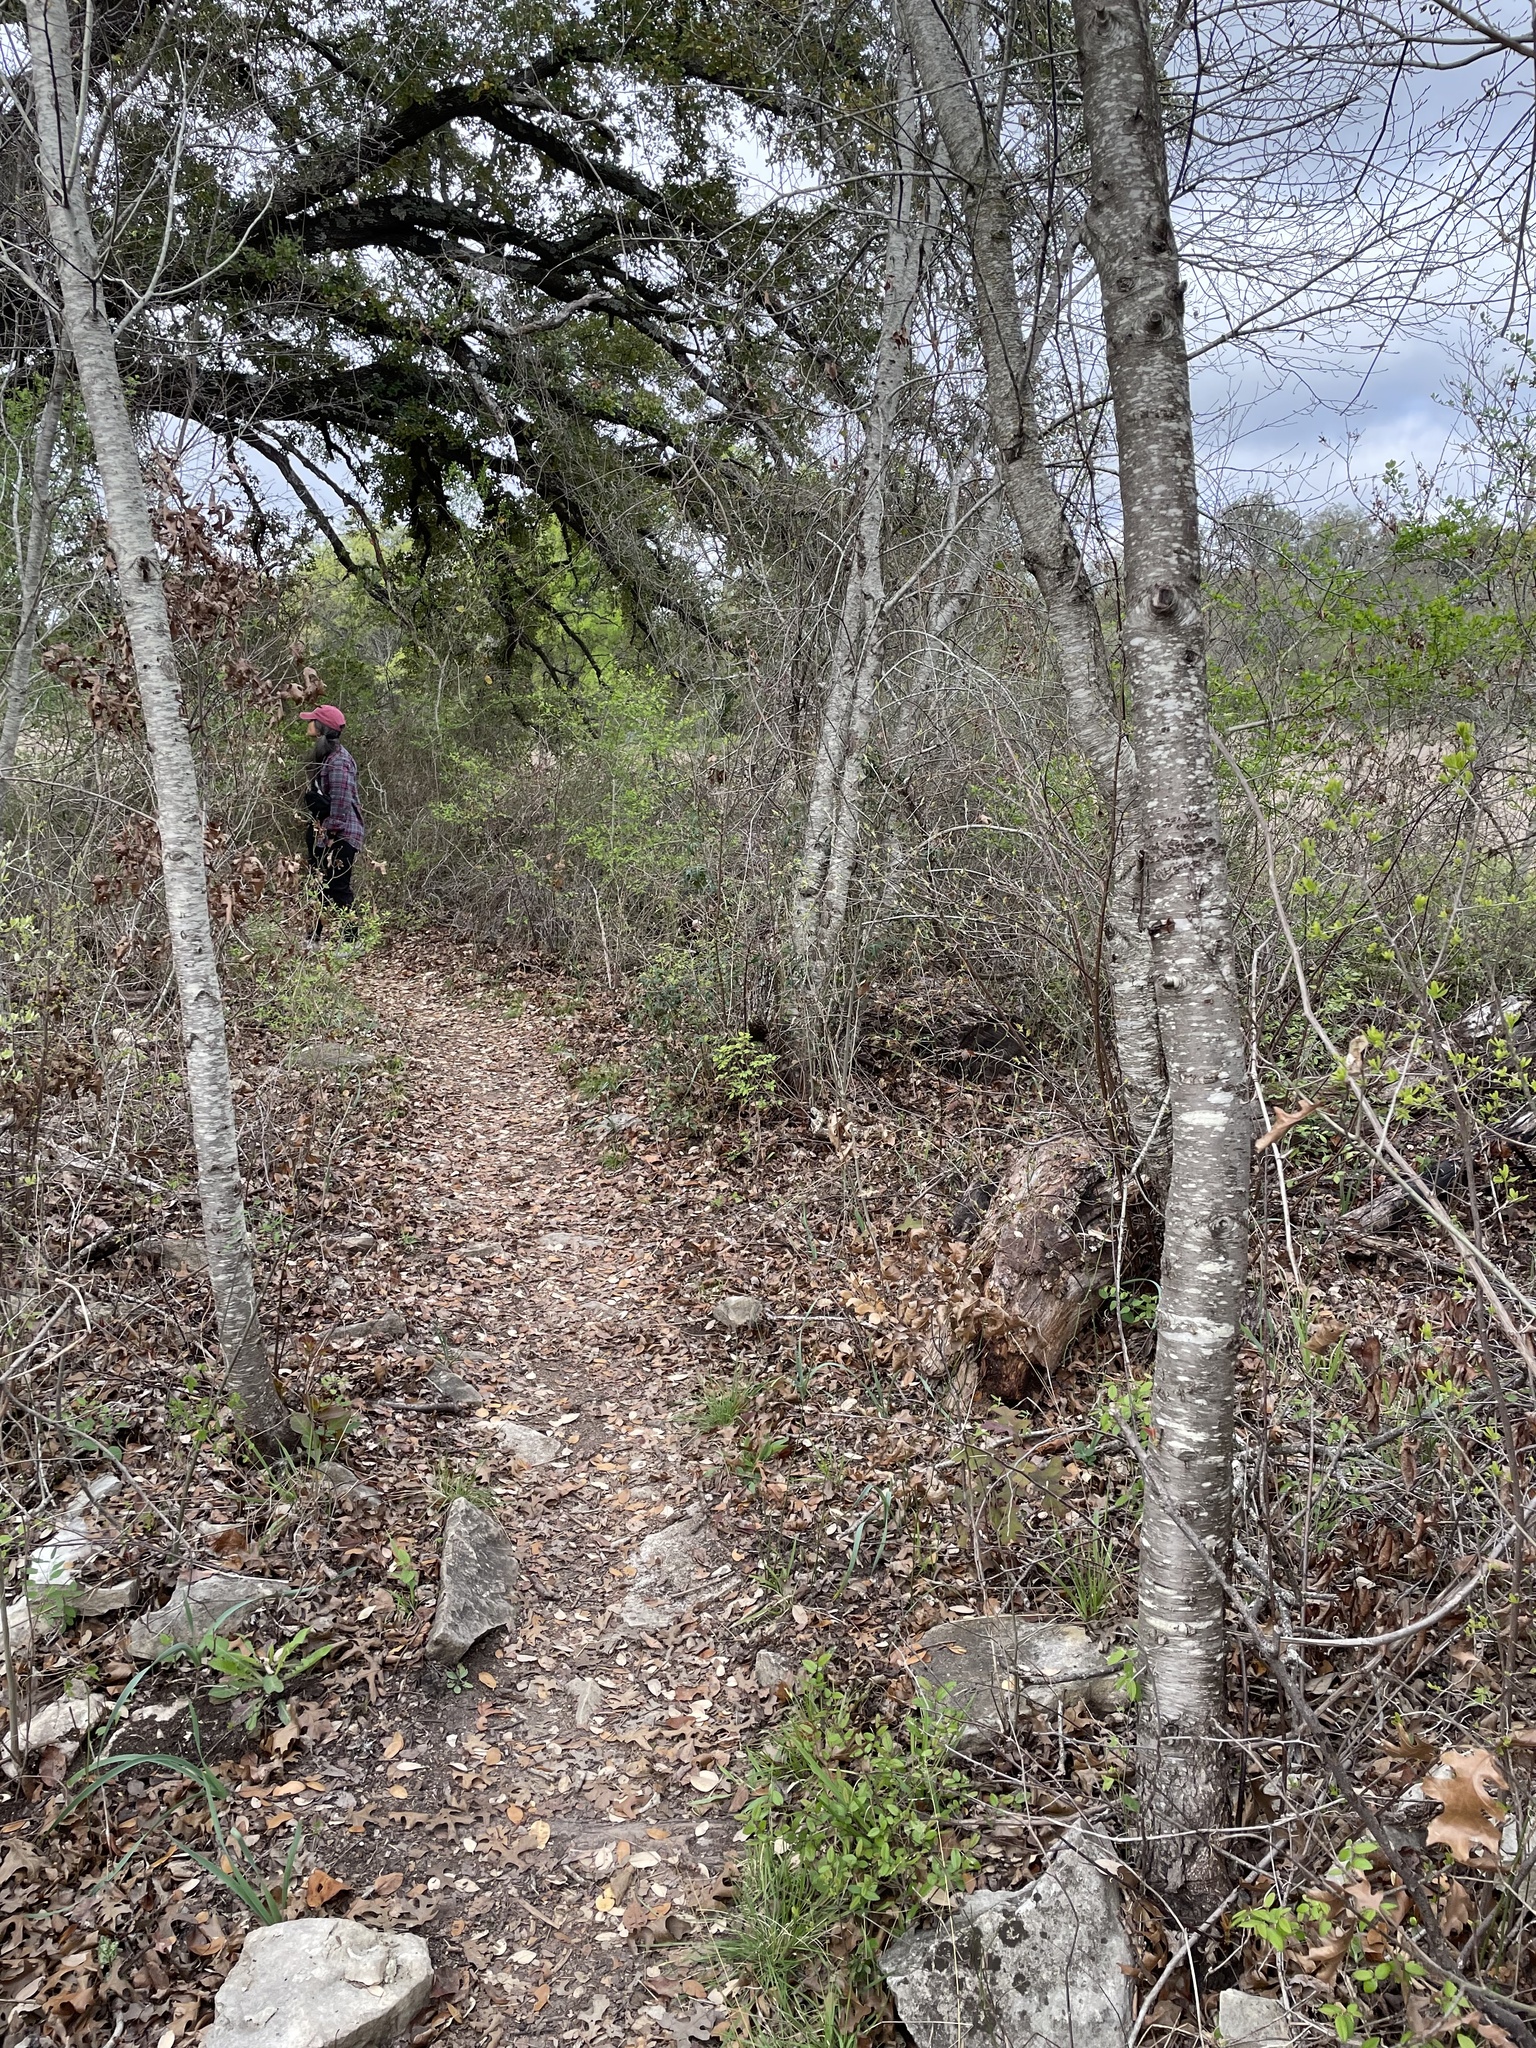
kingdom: Plantae
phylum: Tracheophyta
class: Magnoliopsida
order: Rosales
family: Rosaceae
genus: Prunus
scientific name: Prunus serotina
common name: Black cherry
